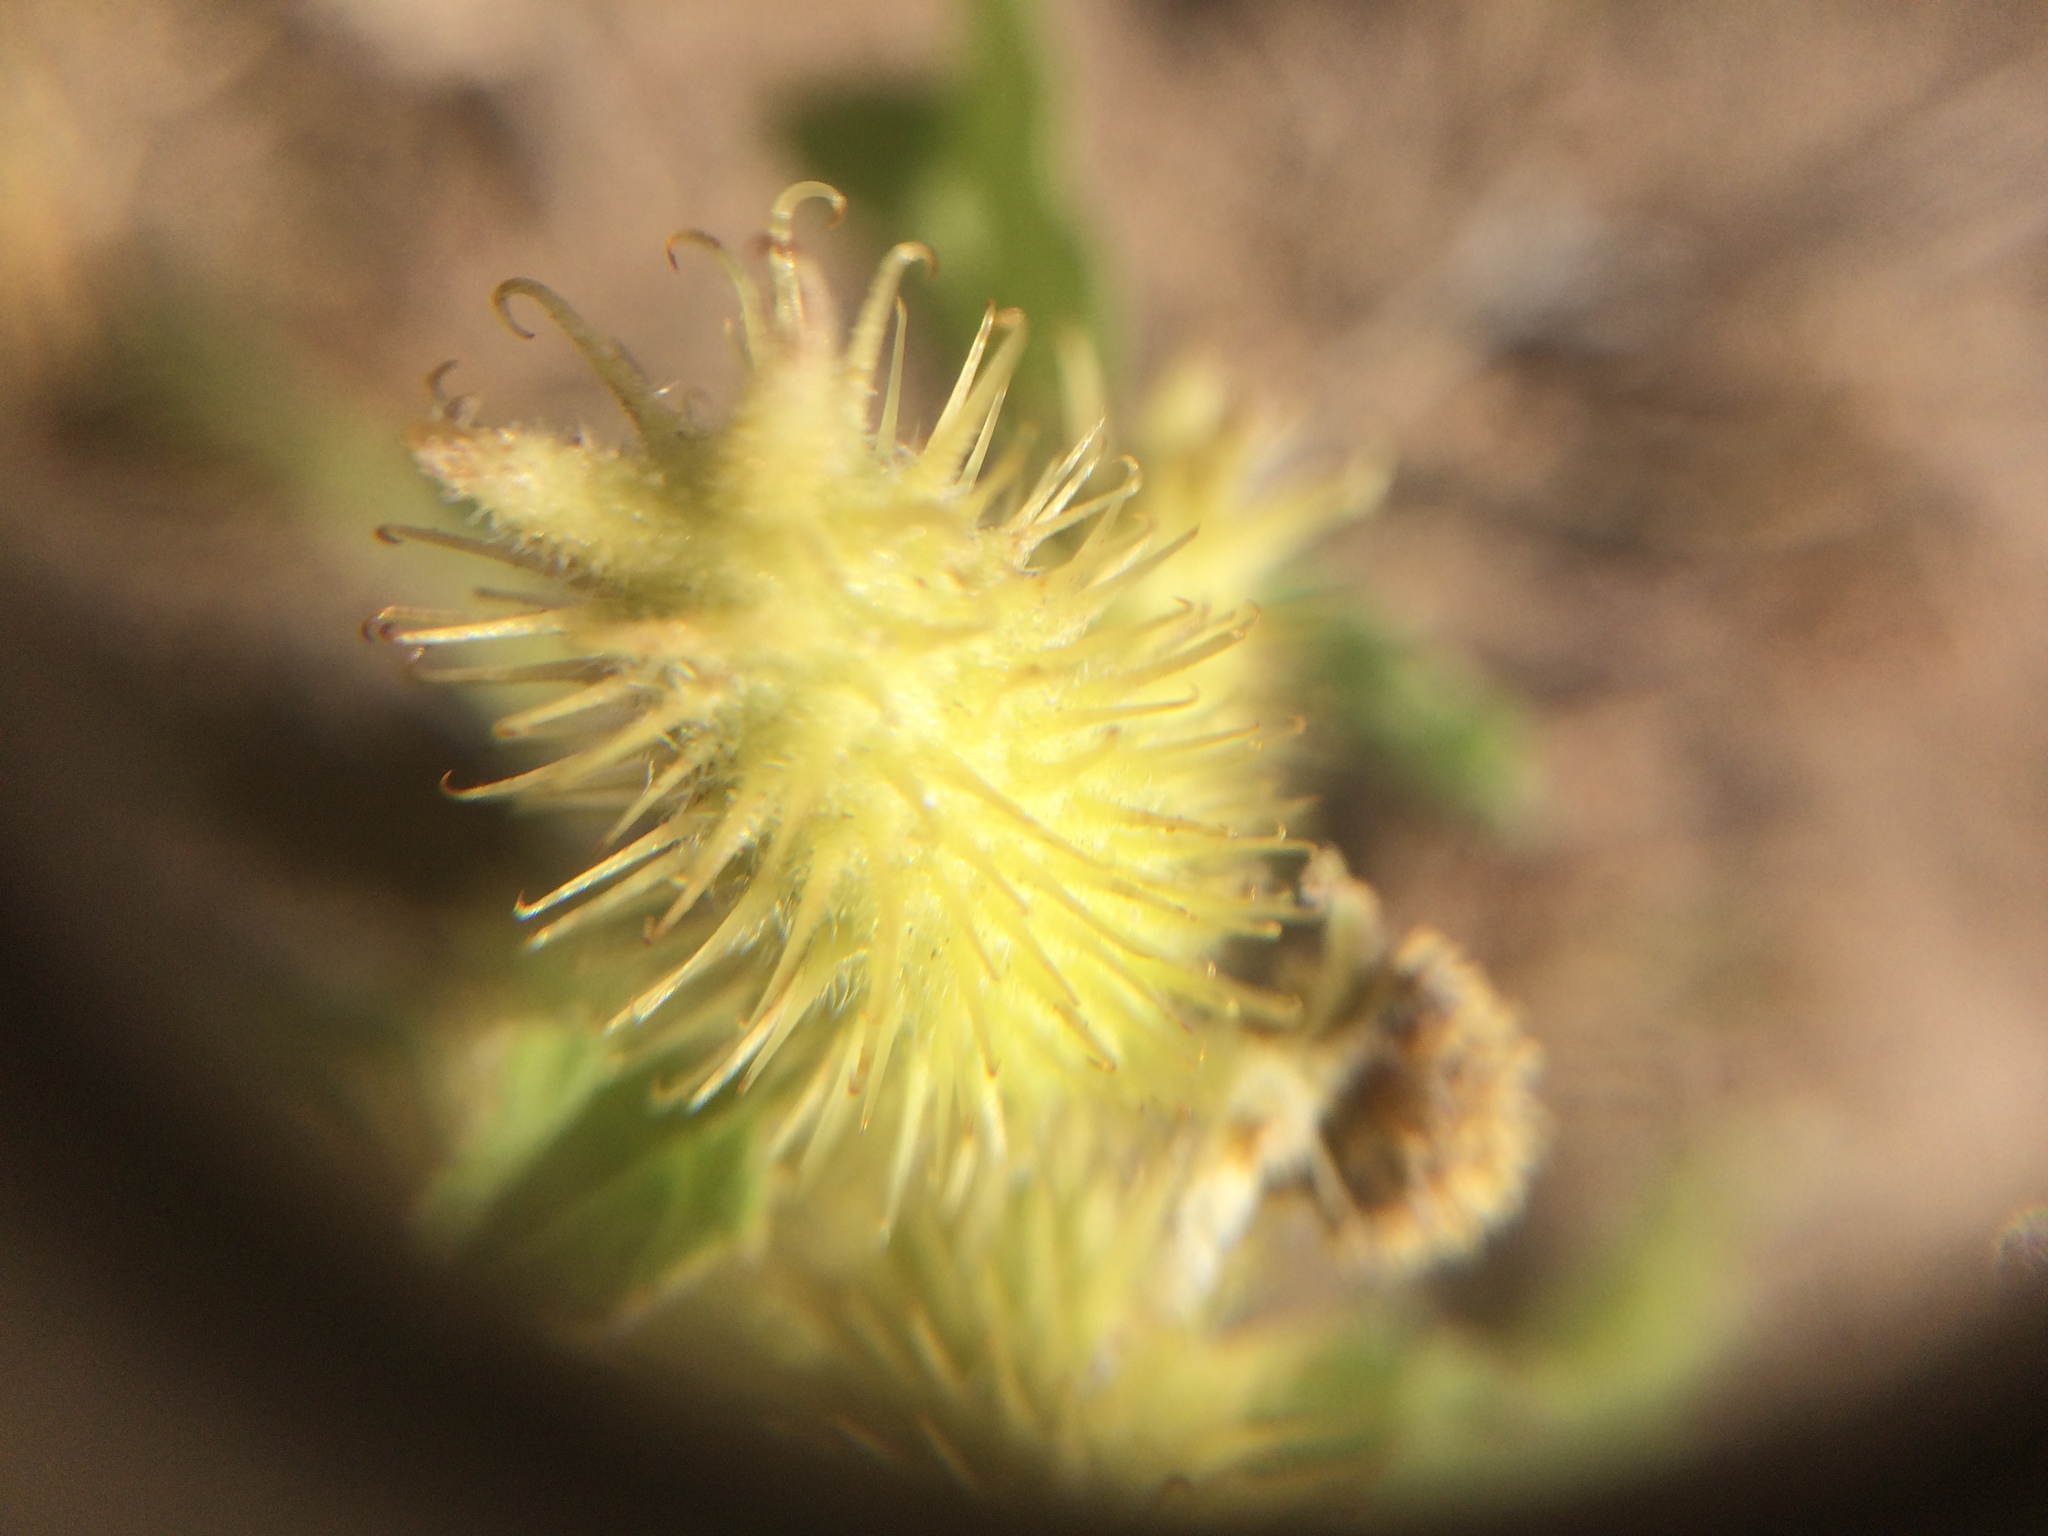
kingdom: Plantae
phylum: Tracheophyta
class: Magnoliopsida
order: Asterales
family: Asteraceae
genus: Xanthium
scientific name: Xanthium strumarium
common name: Rough cocklebur
